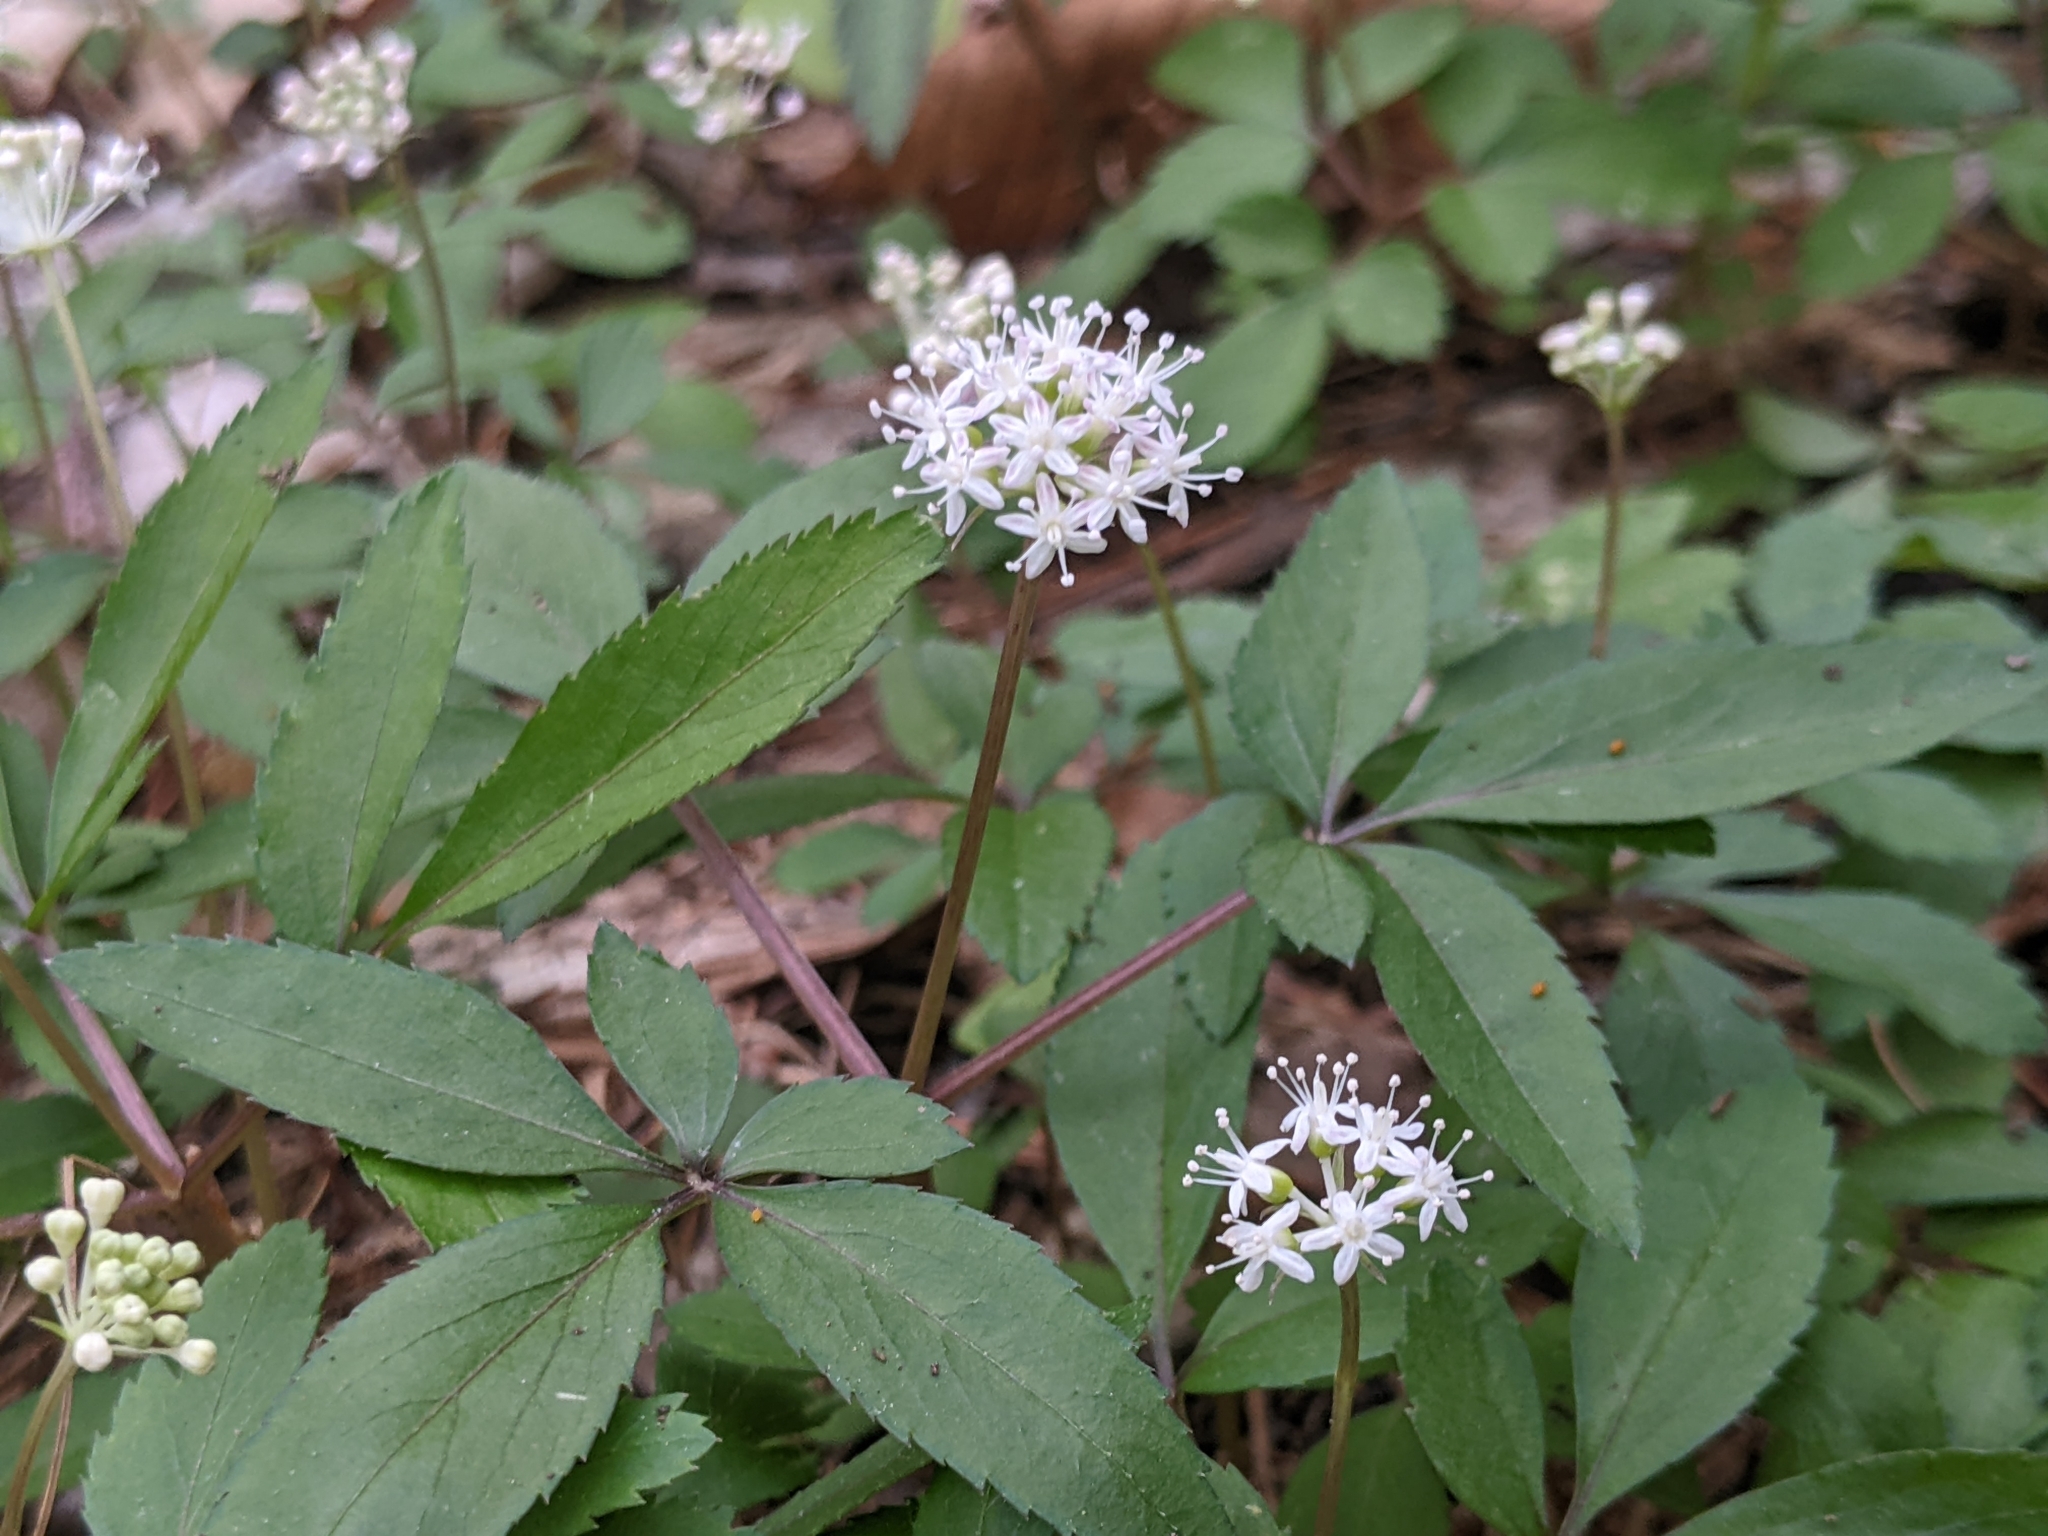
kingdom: Plantae
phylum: Tracheophyta
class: Magnoliopsida
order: Apiales
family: Araliaceae
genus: Panax
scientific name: Panax trifolius
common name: Dwarf ginseng
